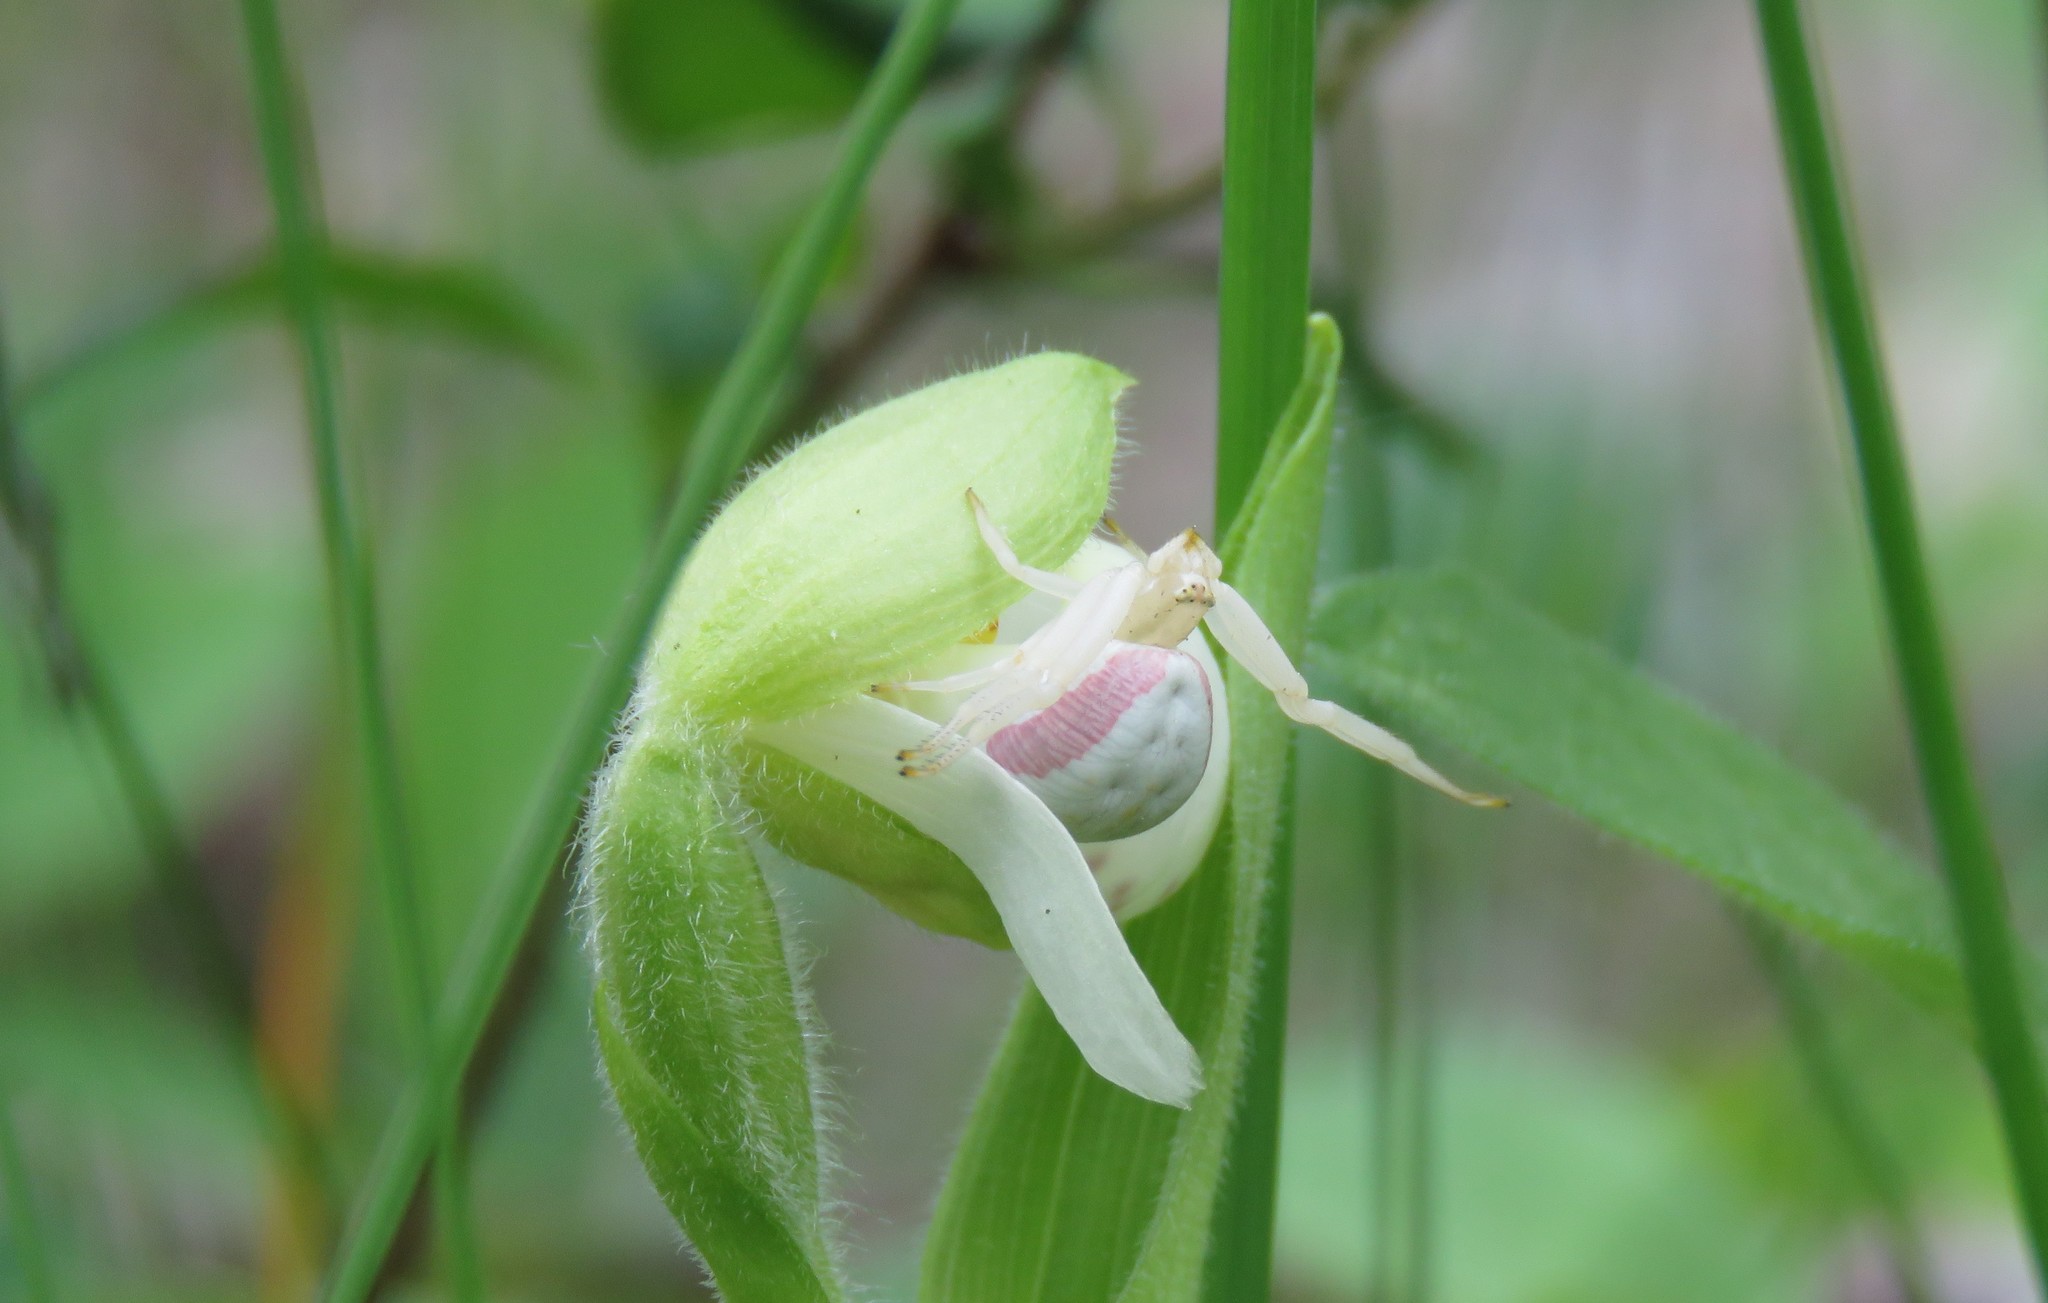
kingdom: Animalia
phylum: Arthropoda
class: Arachnida
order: Araneae
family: Thomisidae
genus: Misumena
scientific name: Misumena vatia
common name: Goldenrod crab spider
